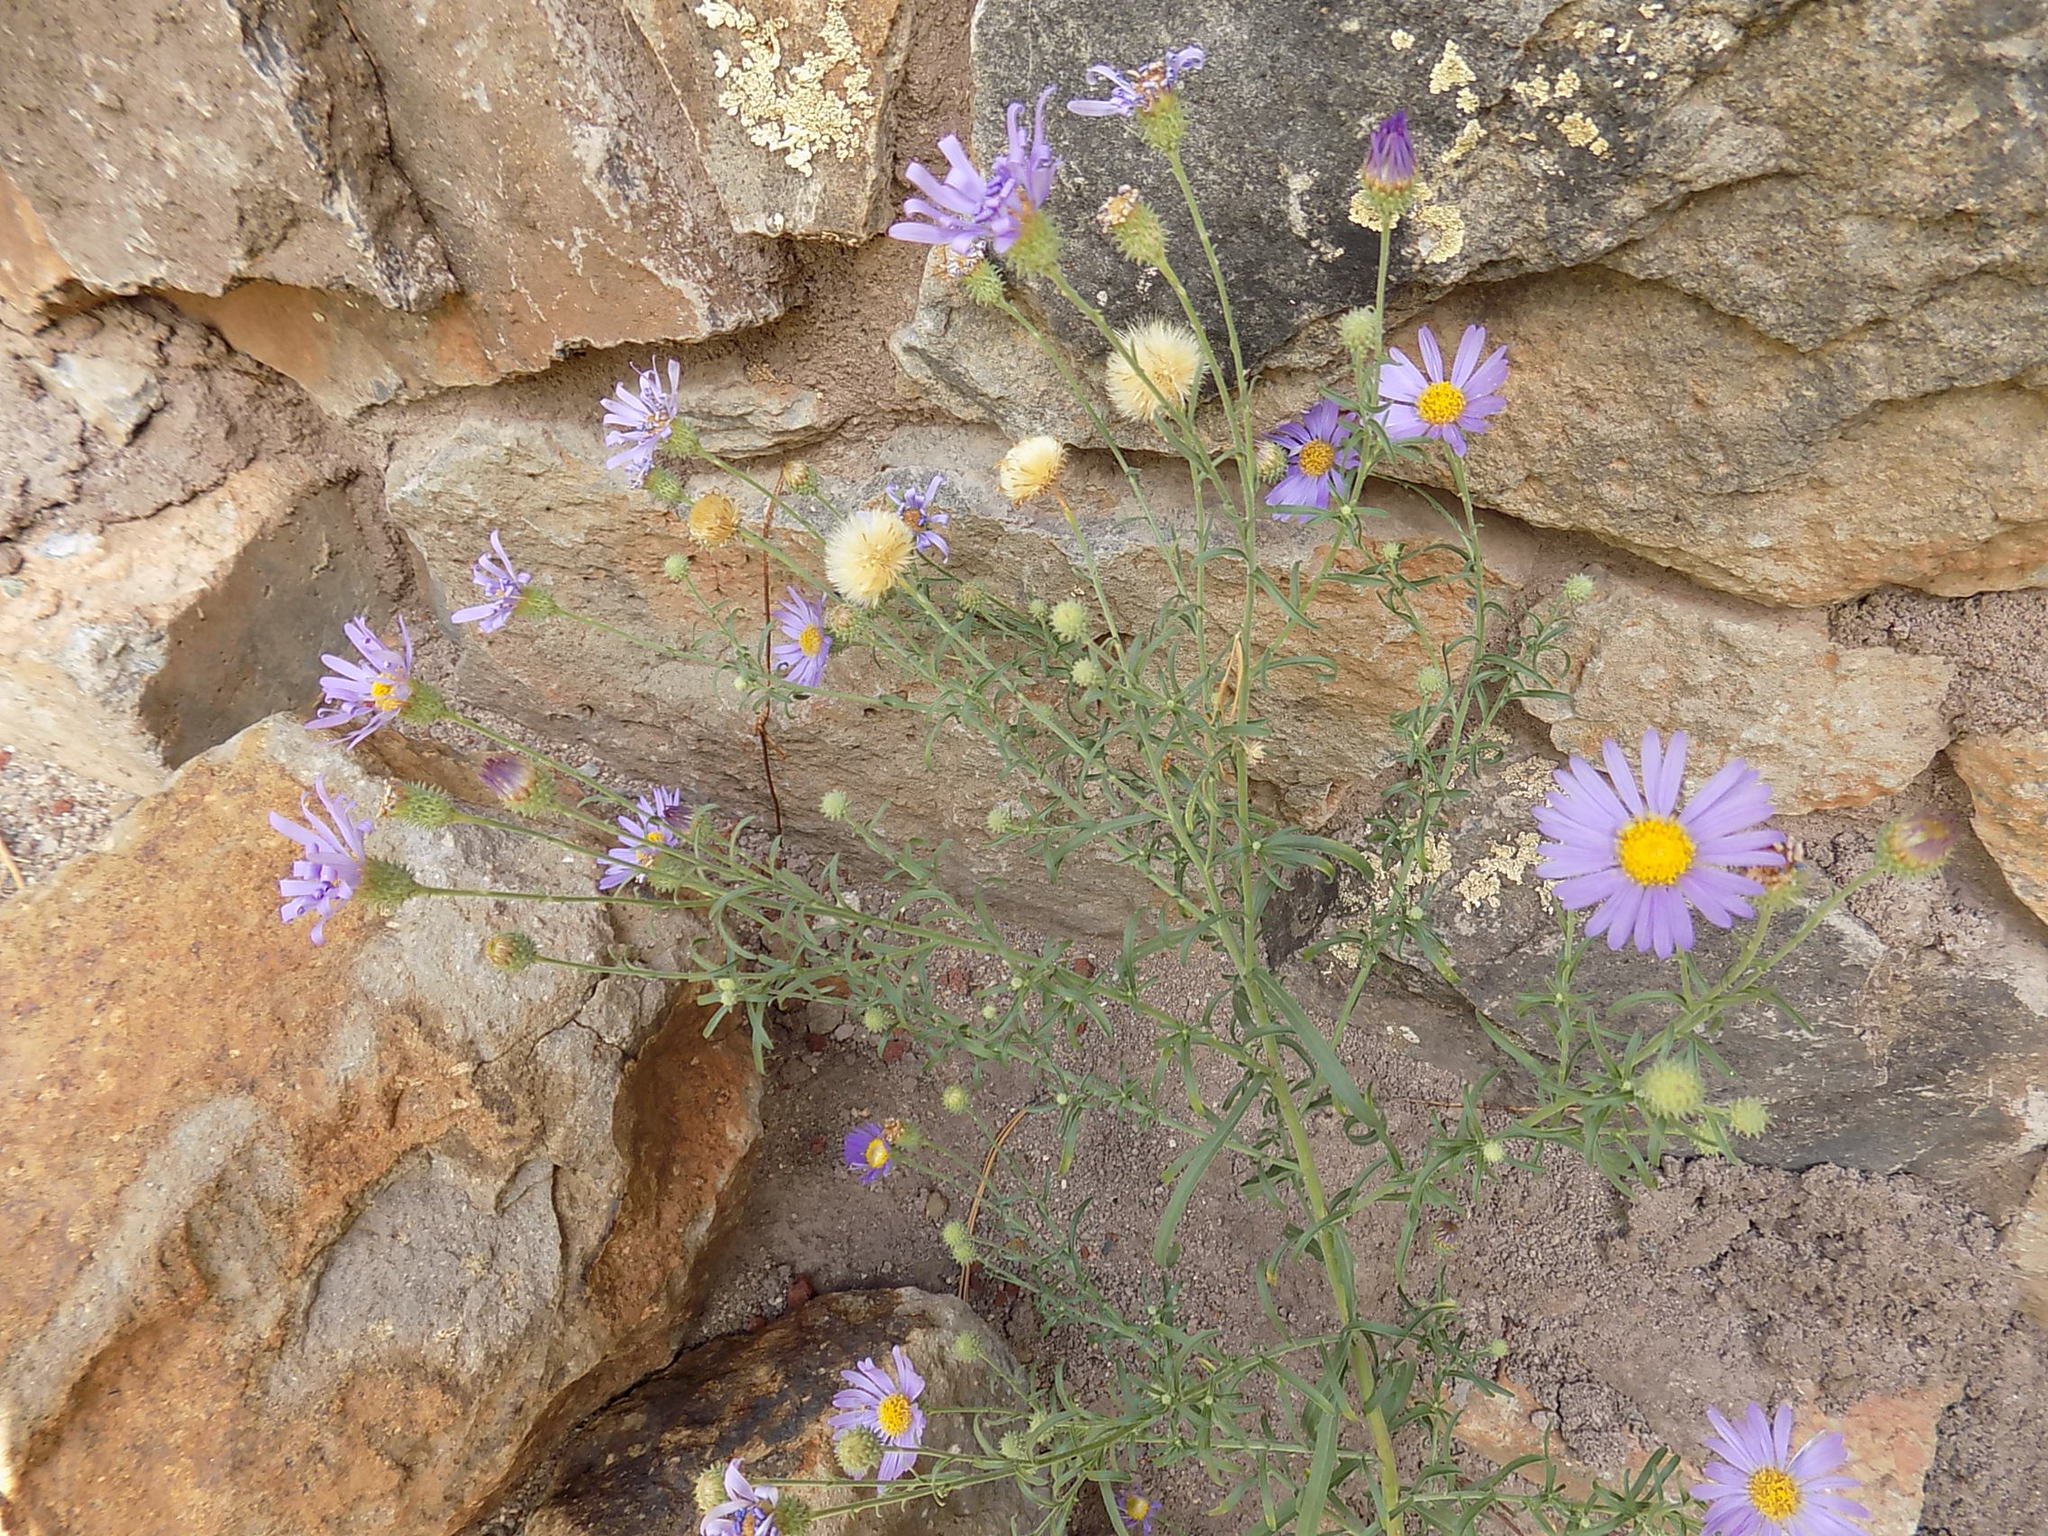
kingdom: Plantae
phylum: Tracheophyta
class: Magnoliopsida
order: Asterales
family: Asteraceae
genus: Dieteria
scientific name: Dieteria canescens
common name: Hoary-aster
